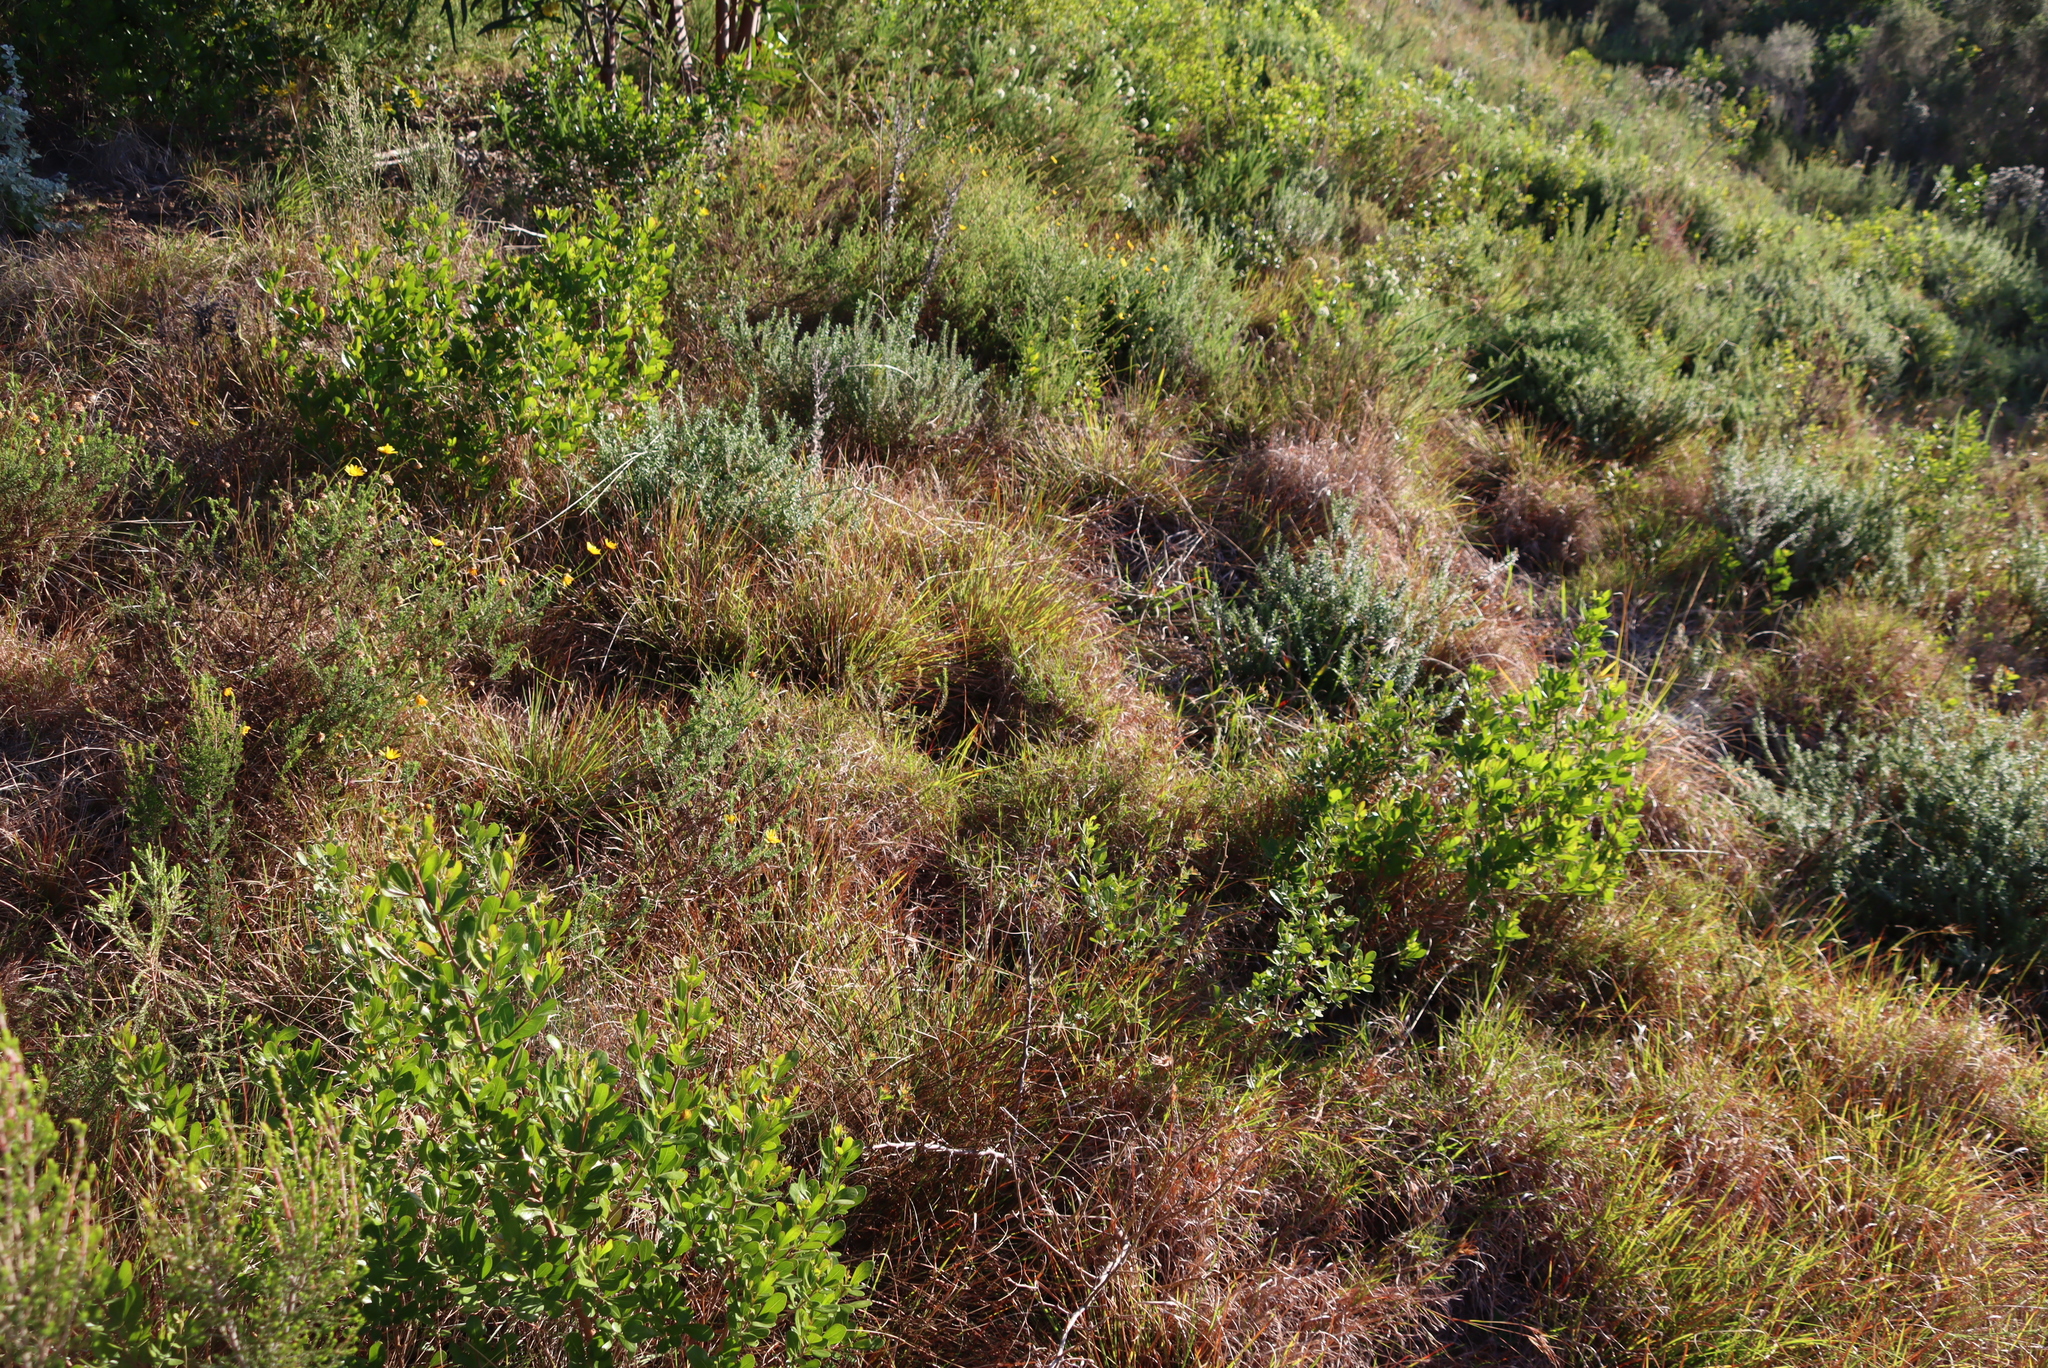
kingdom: Plantae
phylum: Tracheophyta
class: Liliopsida
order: Poales
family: Poaceae
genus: Themeda
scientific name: Themeda triandra
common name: Kangaroo grass
